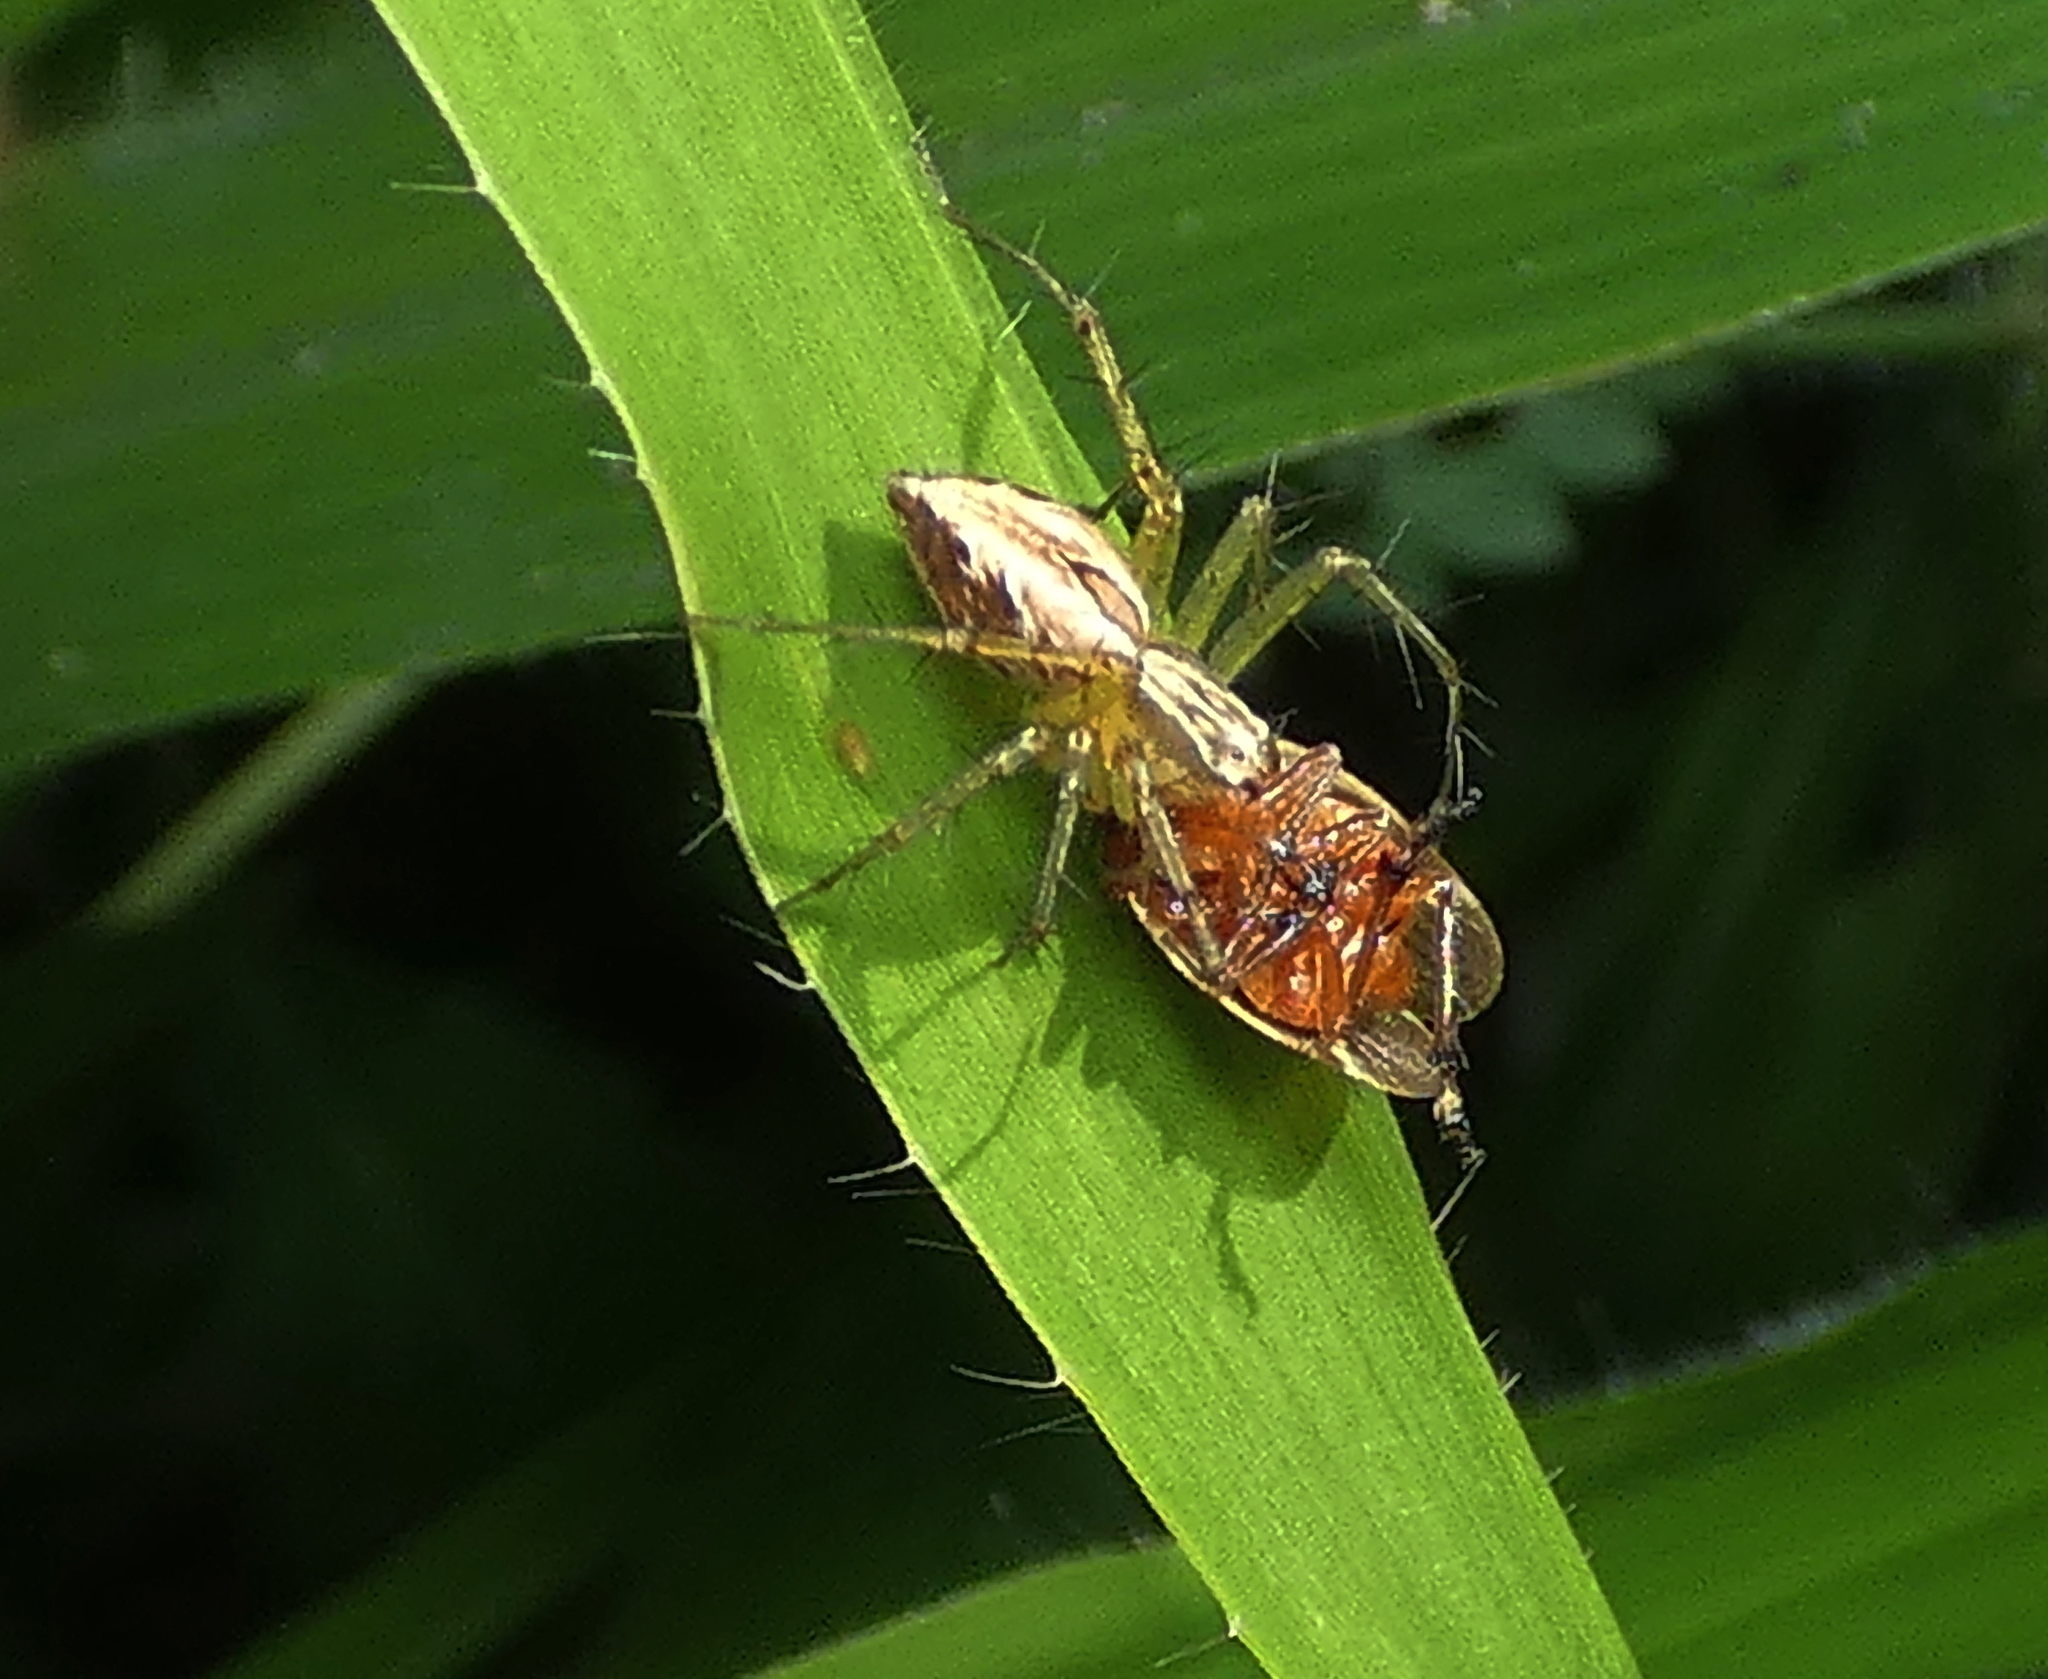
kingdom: Animalia
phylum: Arthropoda
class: Arachnida
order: Araneae
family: Oxyopidae
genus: Oxyopes
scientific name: Oxyopes salticus
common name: Lynx spiders
